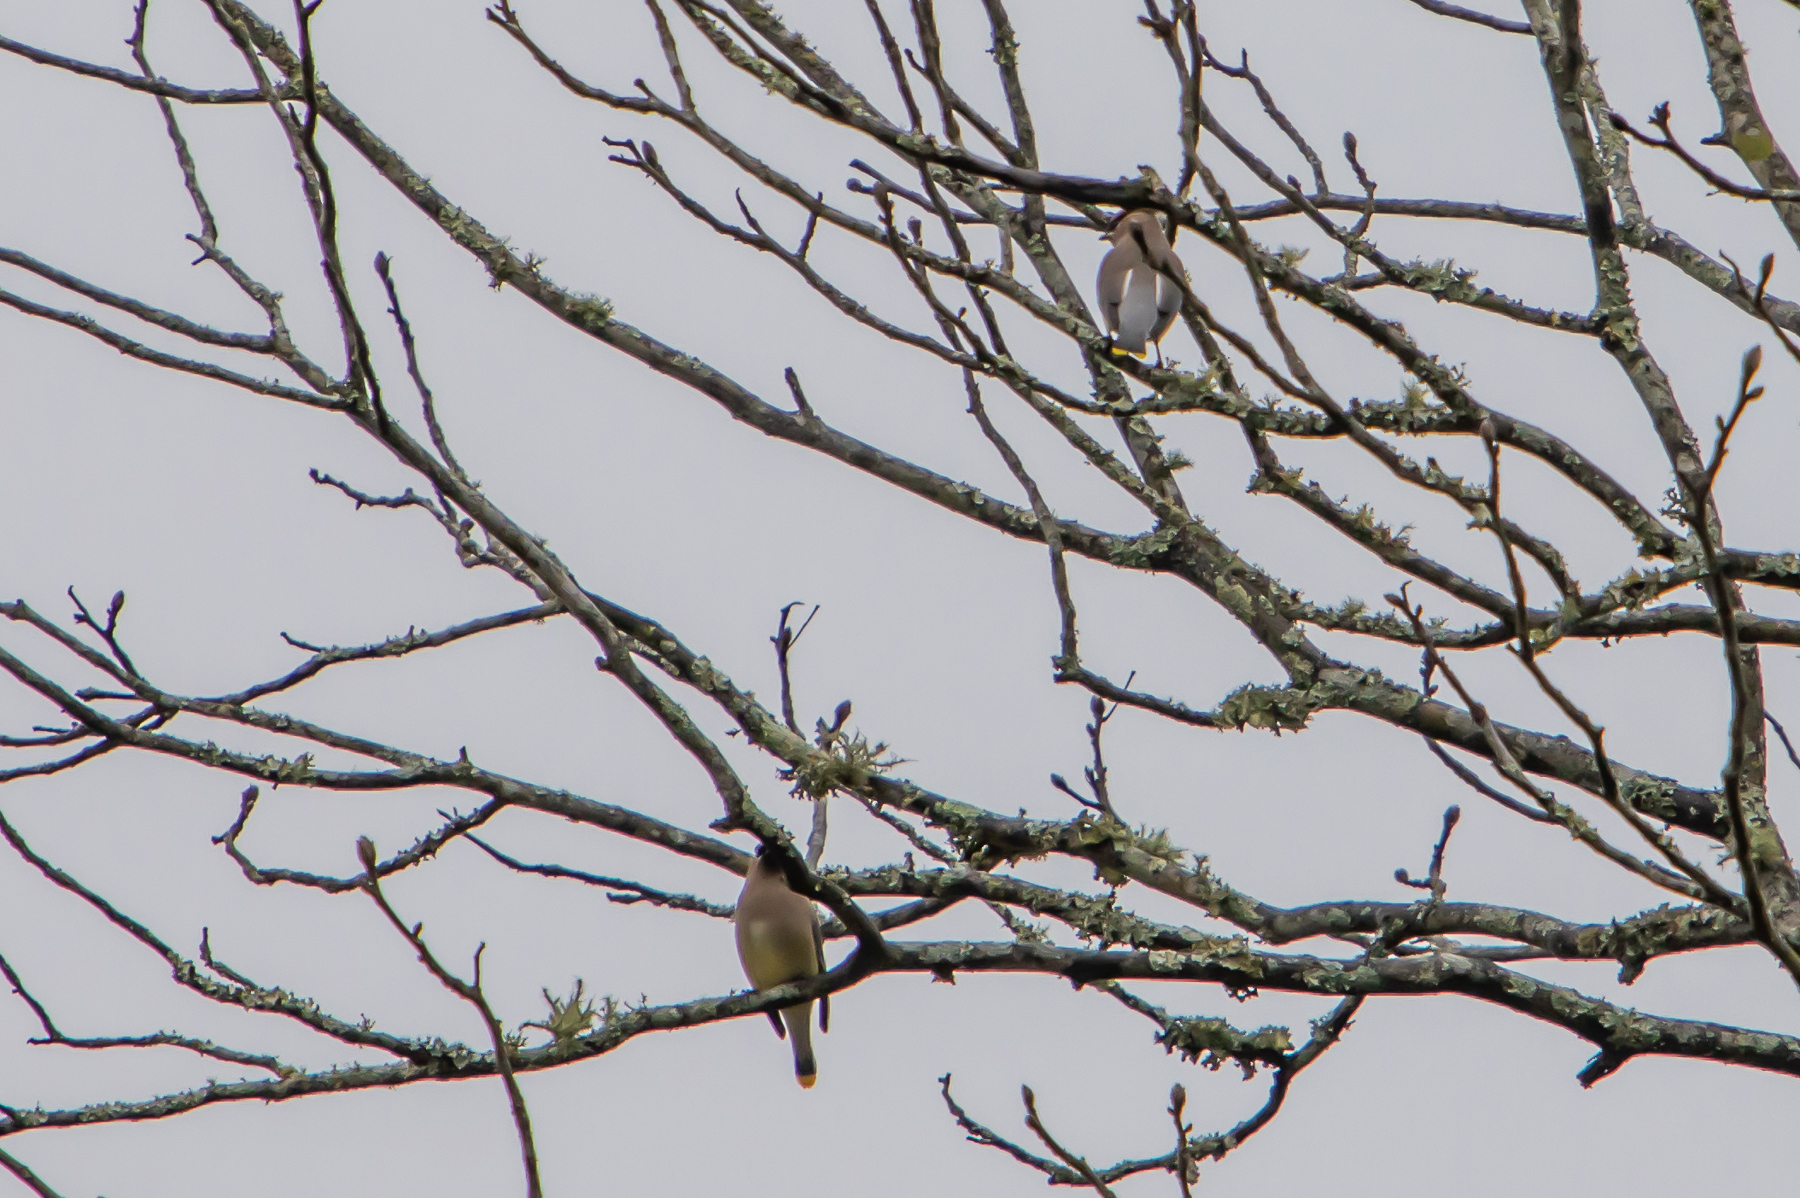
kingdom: Animalia
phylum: Chordata
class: Aves
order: Passeriformes
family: Bombycillidae
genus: Bombycilla
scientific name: Bombycilla cedrorum
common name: Cedar waxwing
